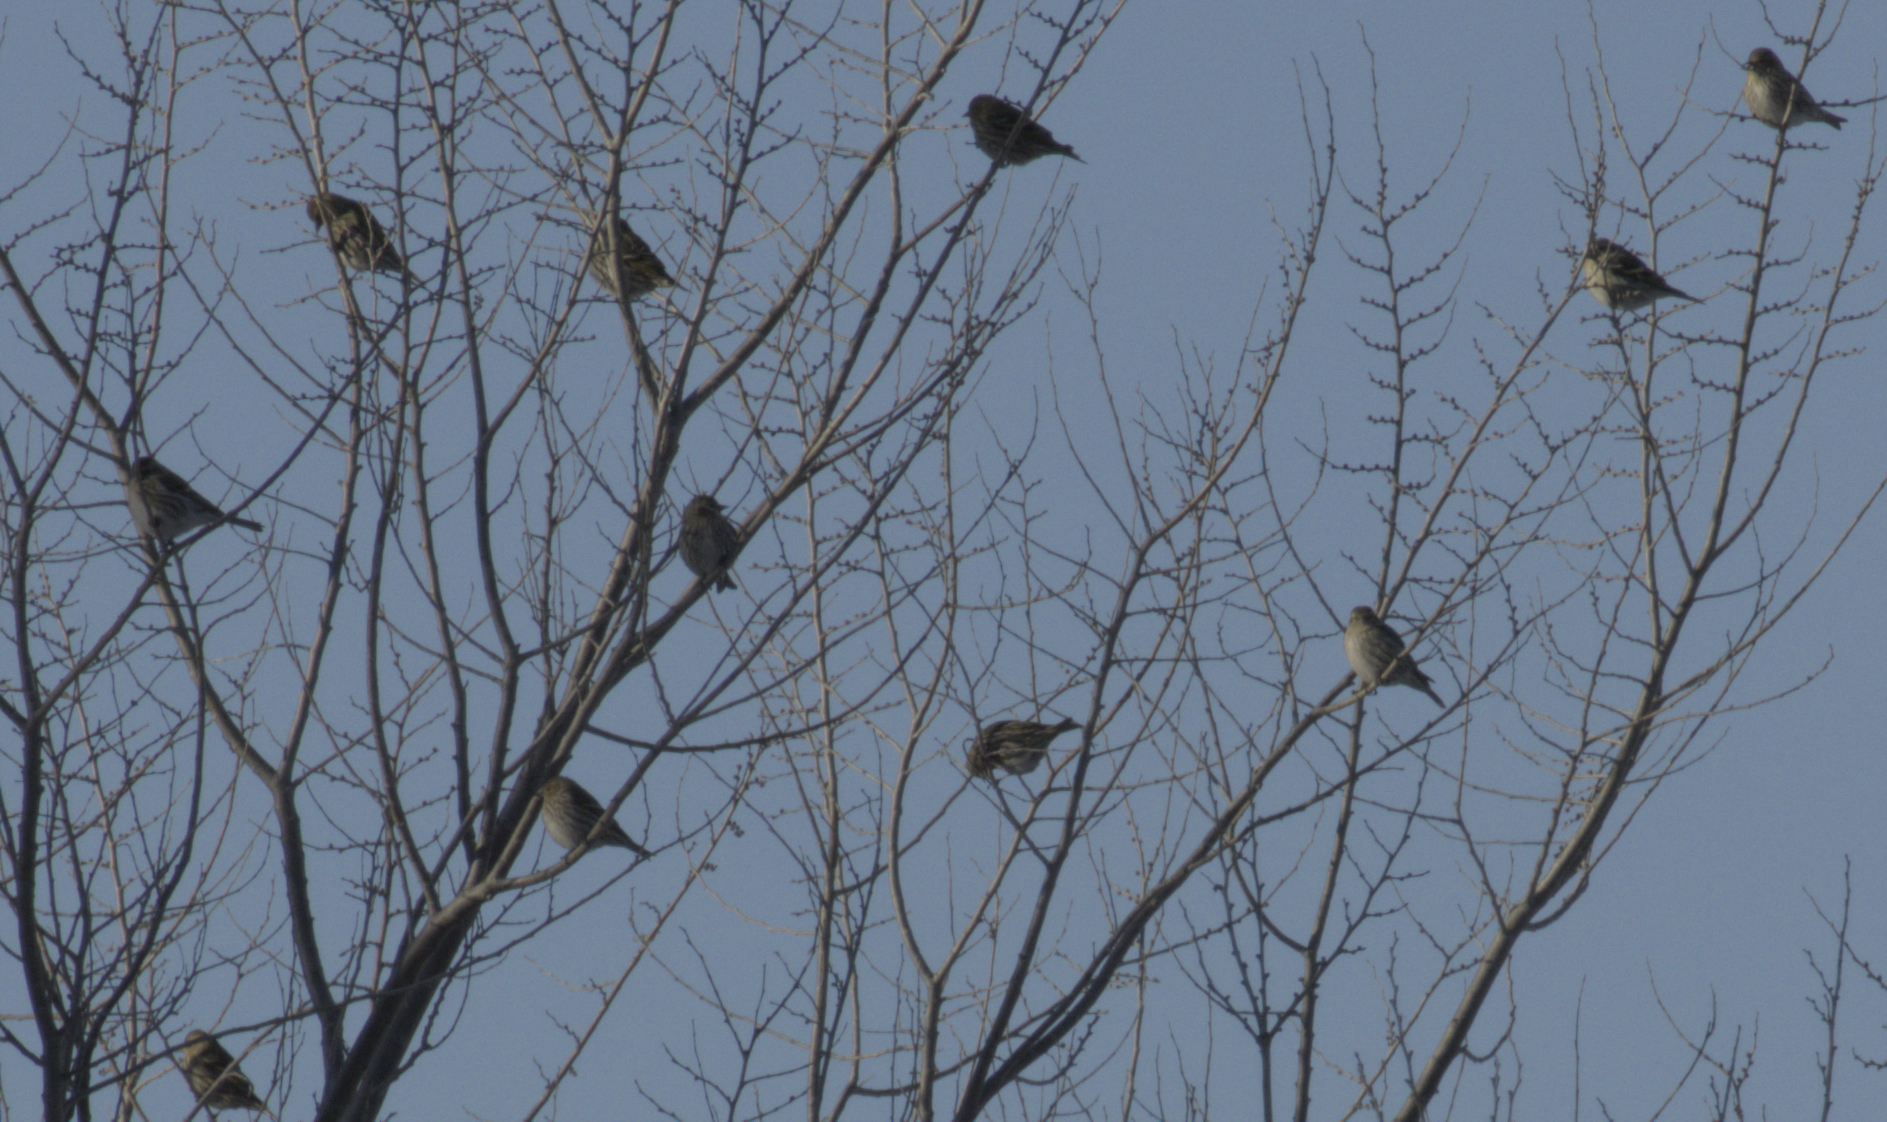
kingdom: Animalia
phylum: Chordata
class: Aves
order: Passeriformes
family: Fringillidae
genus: Acanthis
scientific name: Acanthis flammea
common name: Common redpoll
